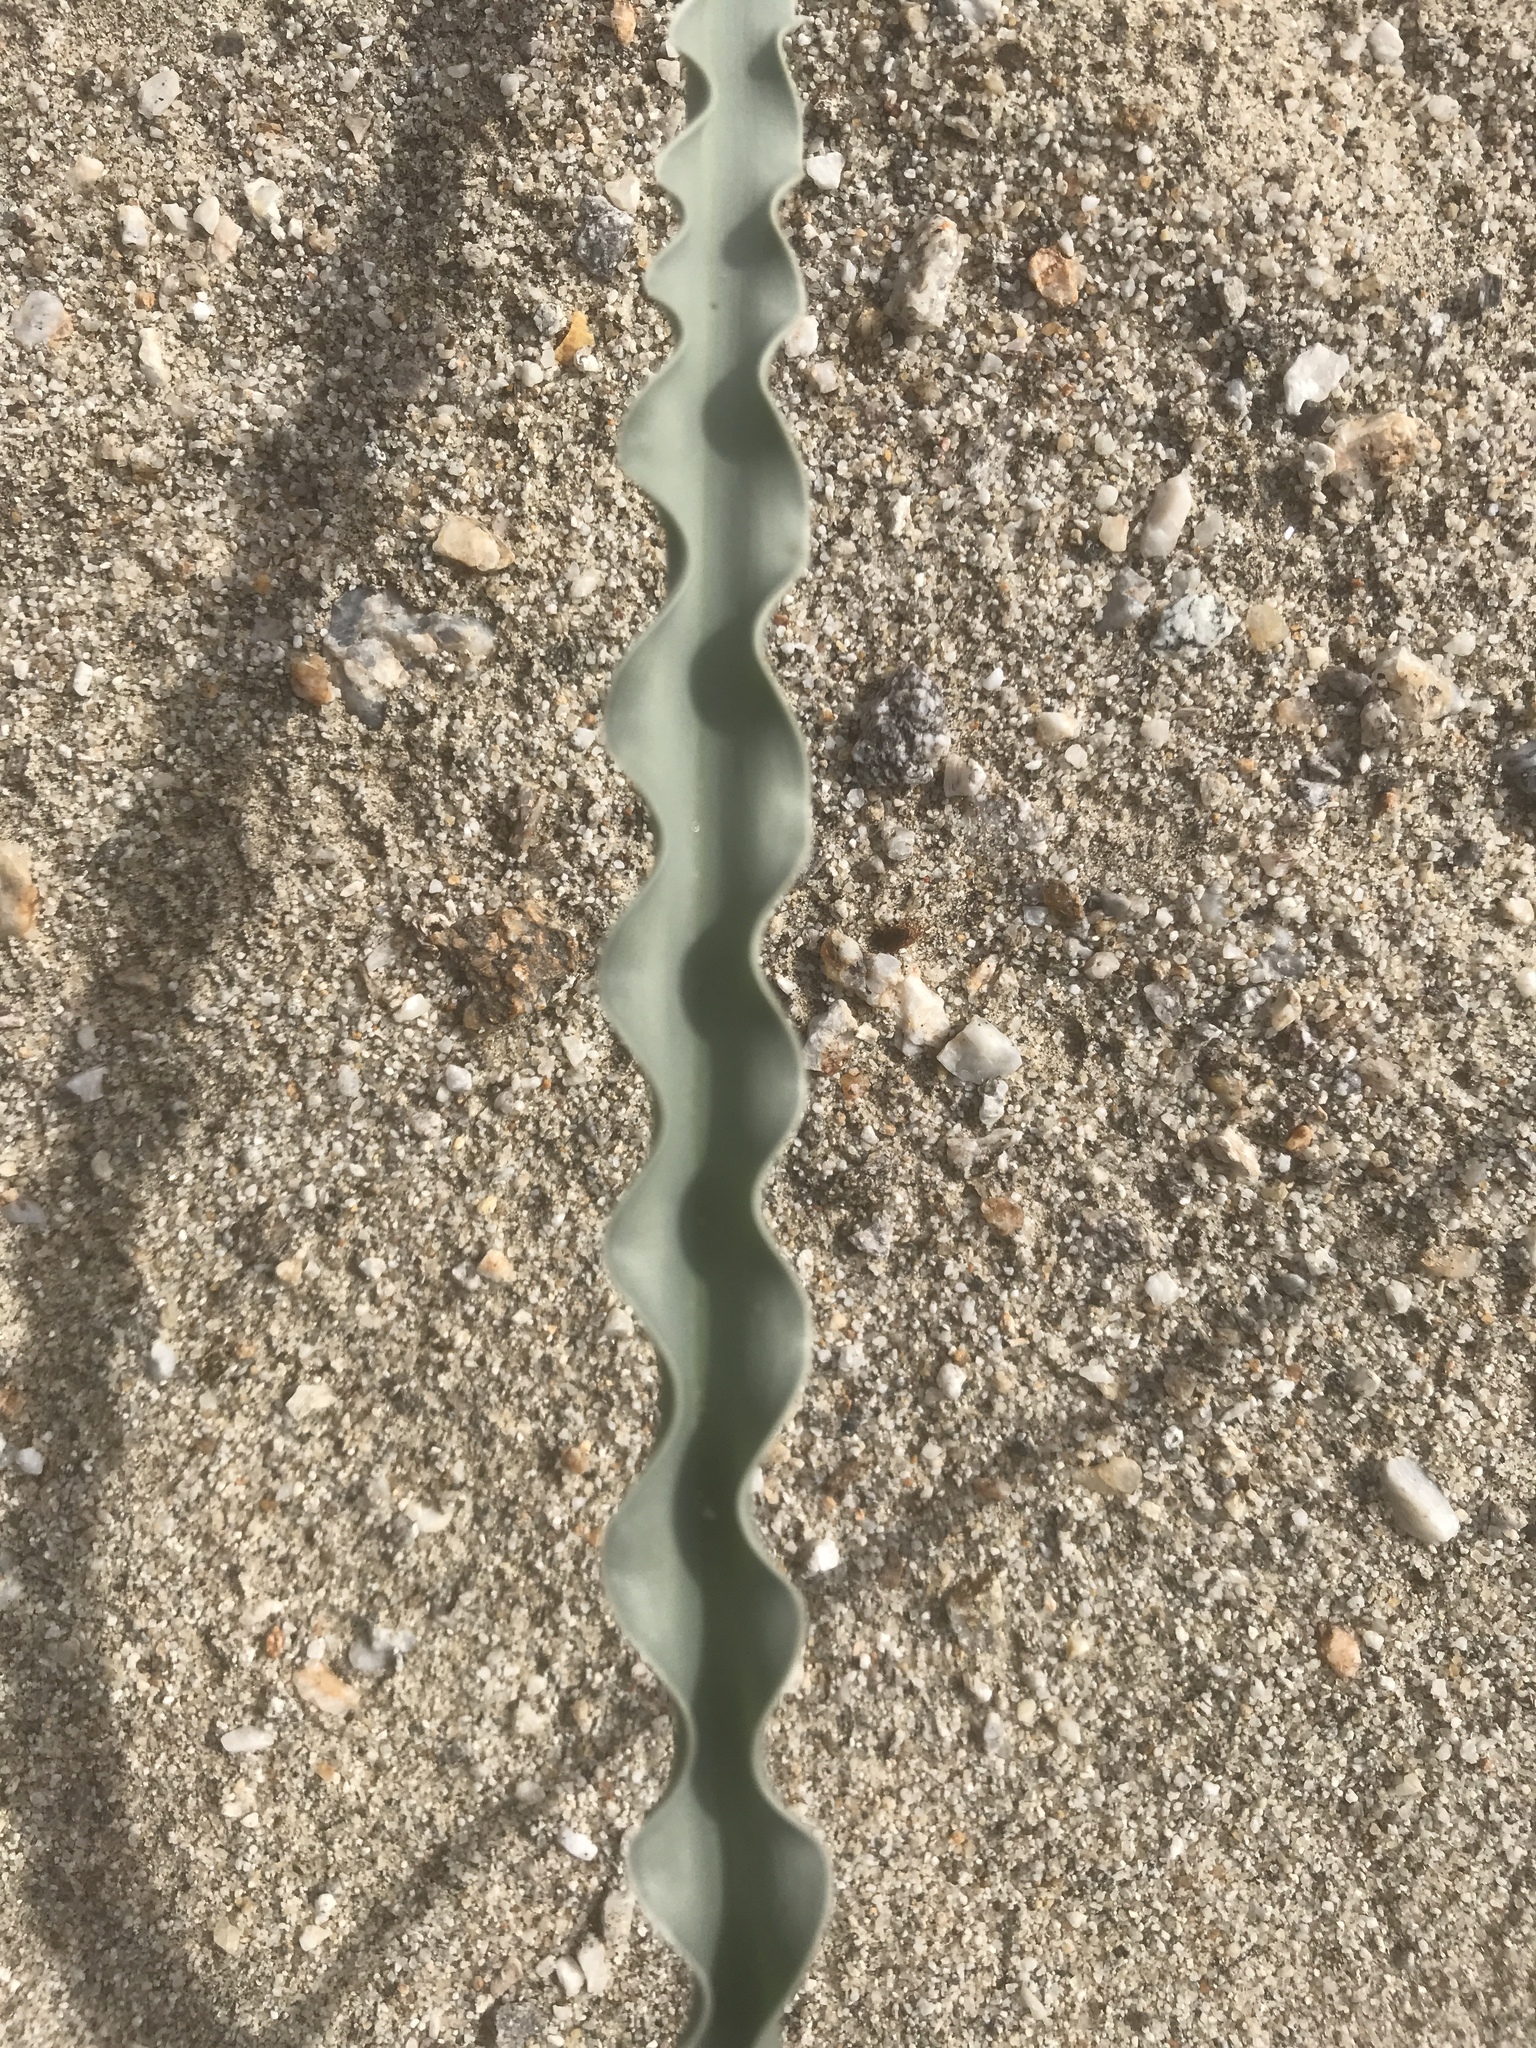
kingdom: Plantae
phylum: Tracheophyta
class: Liliopsida
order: Asparagales
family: Asparagaceae
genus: Hesperocallis
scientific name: Hesperocallis undulata
